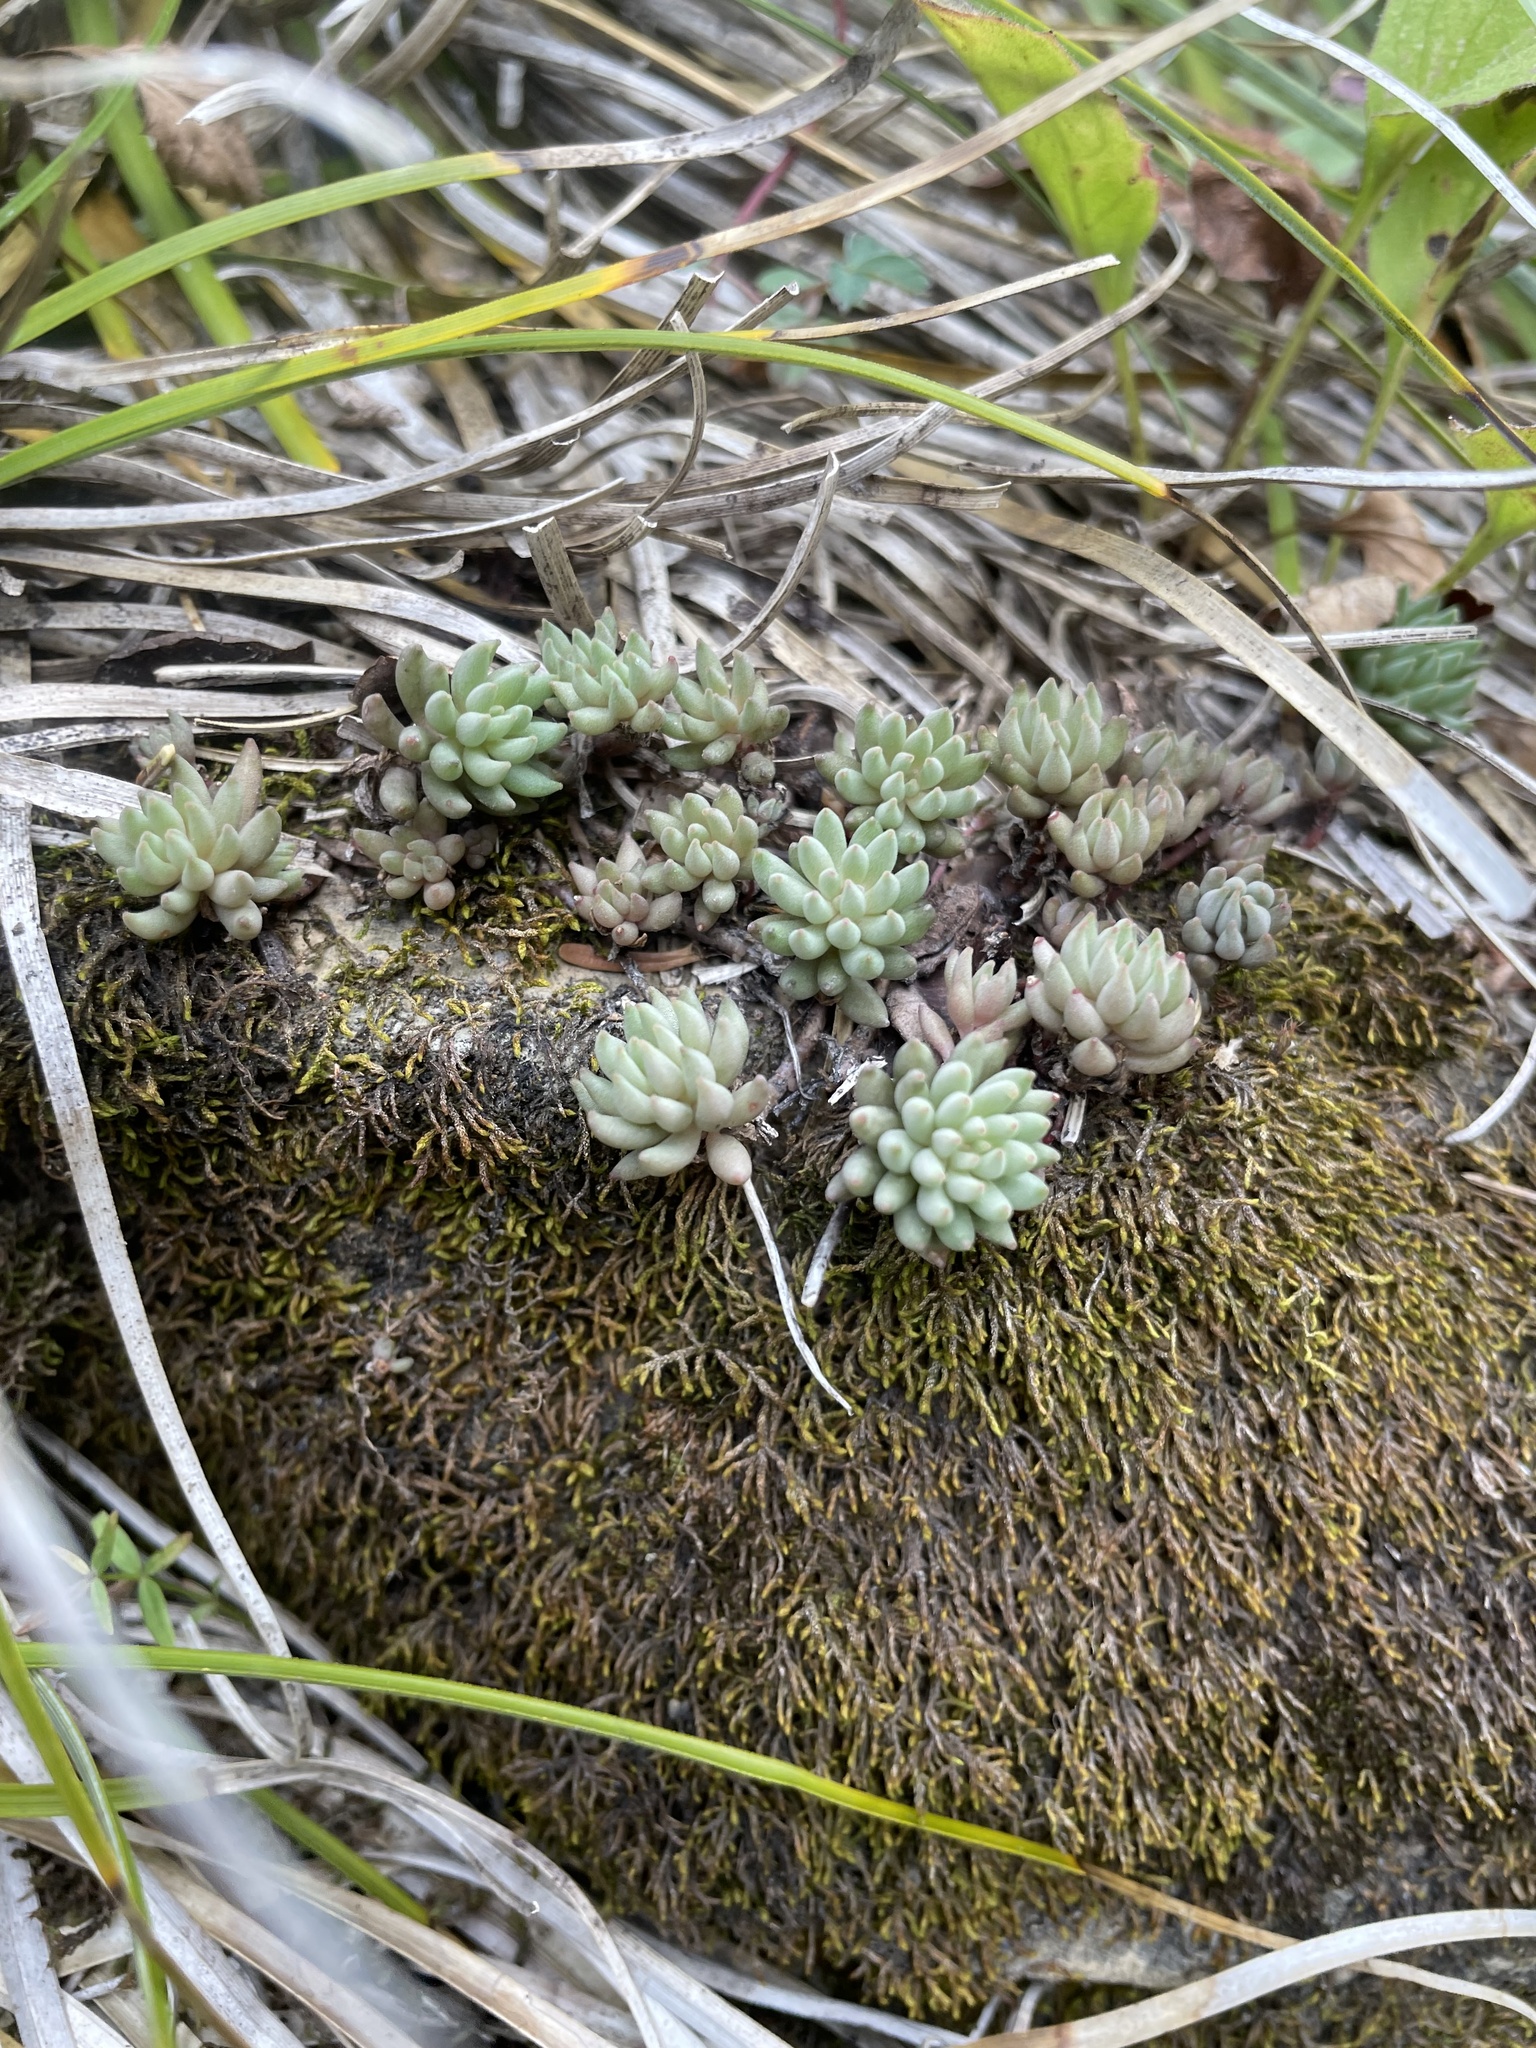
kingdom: Plantae
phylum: Tracheophyta
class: Magnoliopsida
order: Saxifragales
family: Crassulaceae
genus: Sedum
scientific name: Sedum lanceolatum
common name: Common stonecrop
